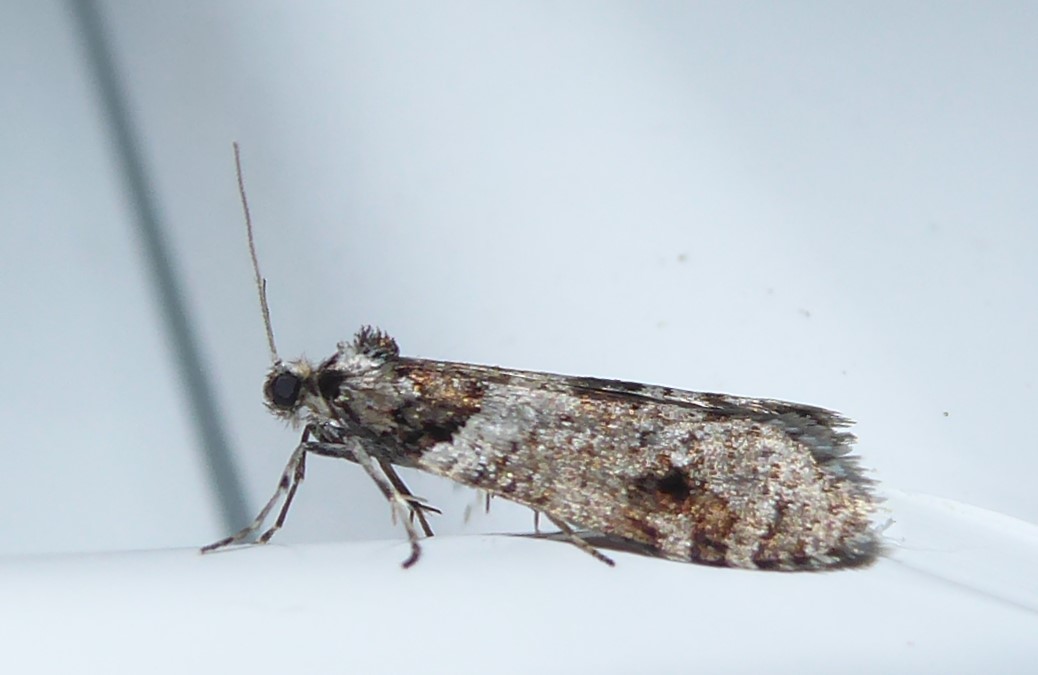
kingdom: Animalia
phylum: Arthropoda
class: Insecta
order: Lepidoptera
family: Psychidae
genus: Lepidoscia
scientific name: Lepidoscia heliochares
